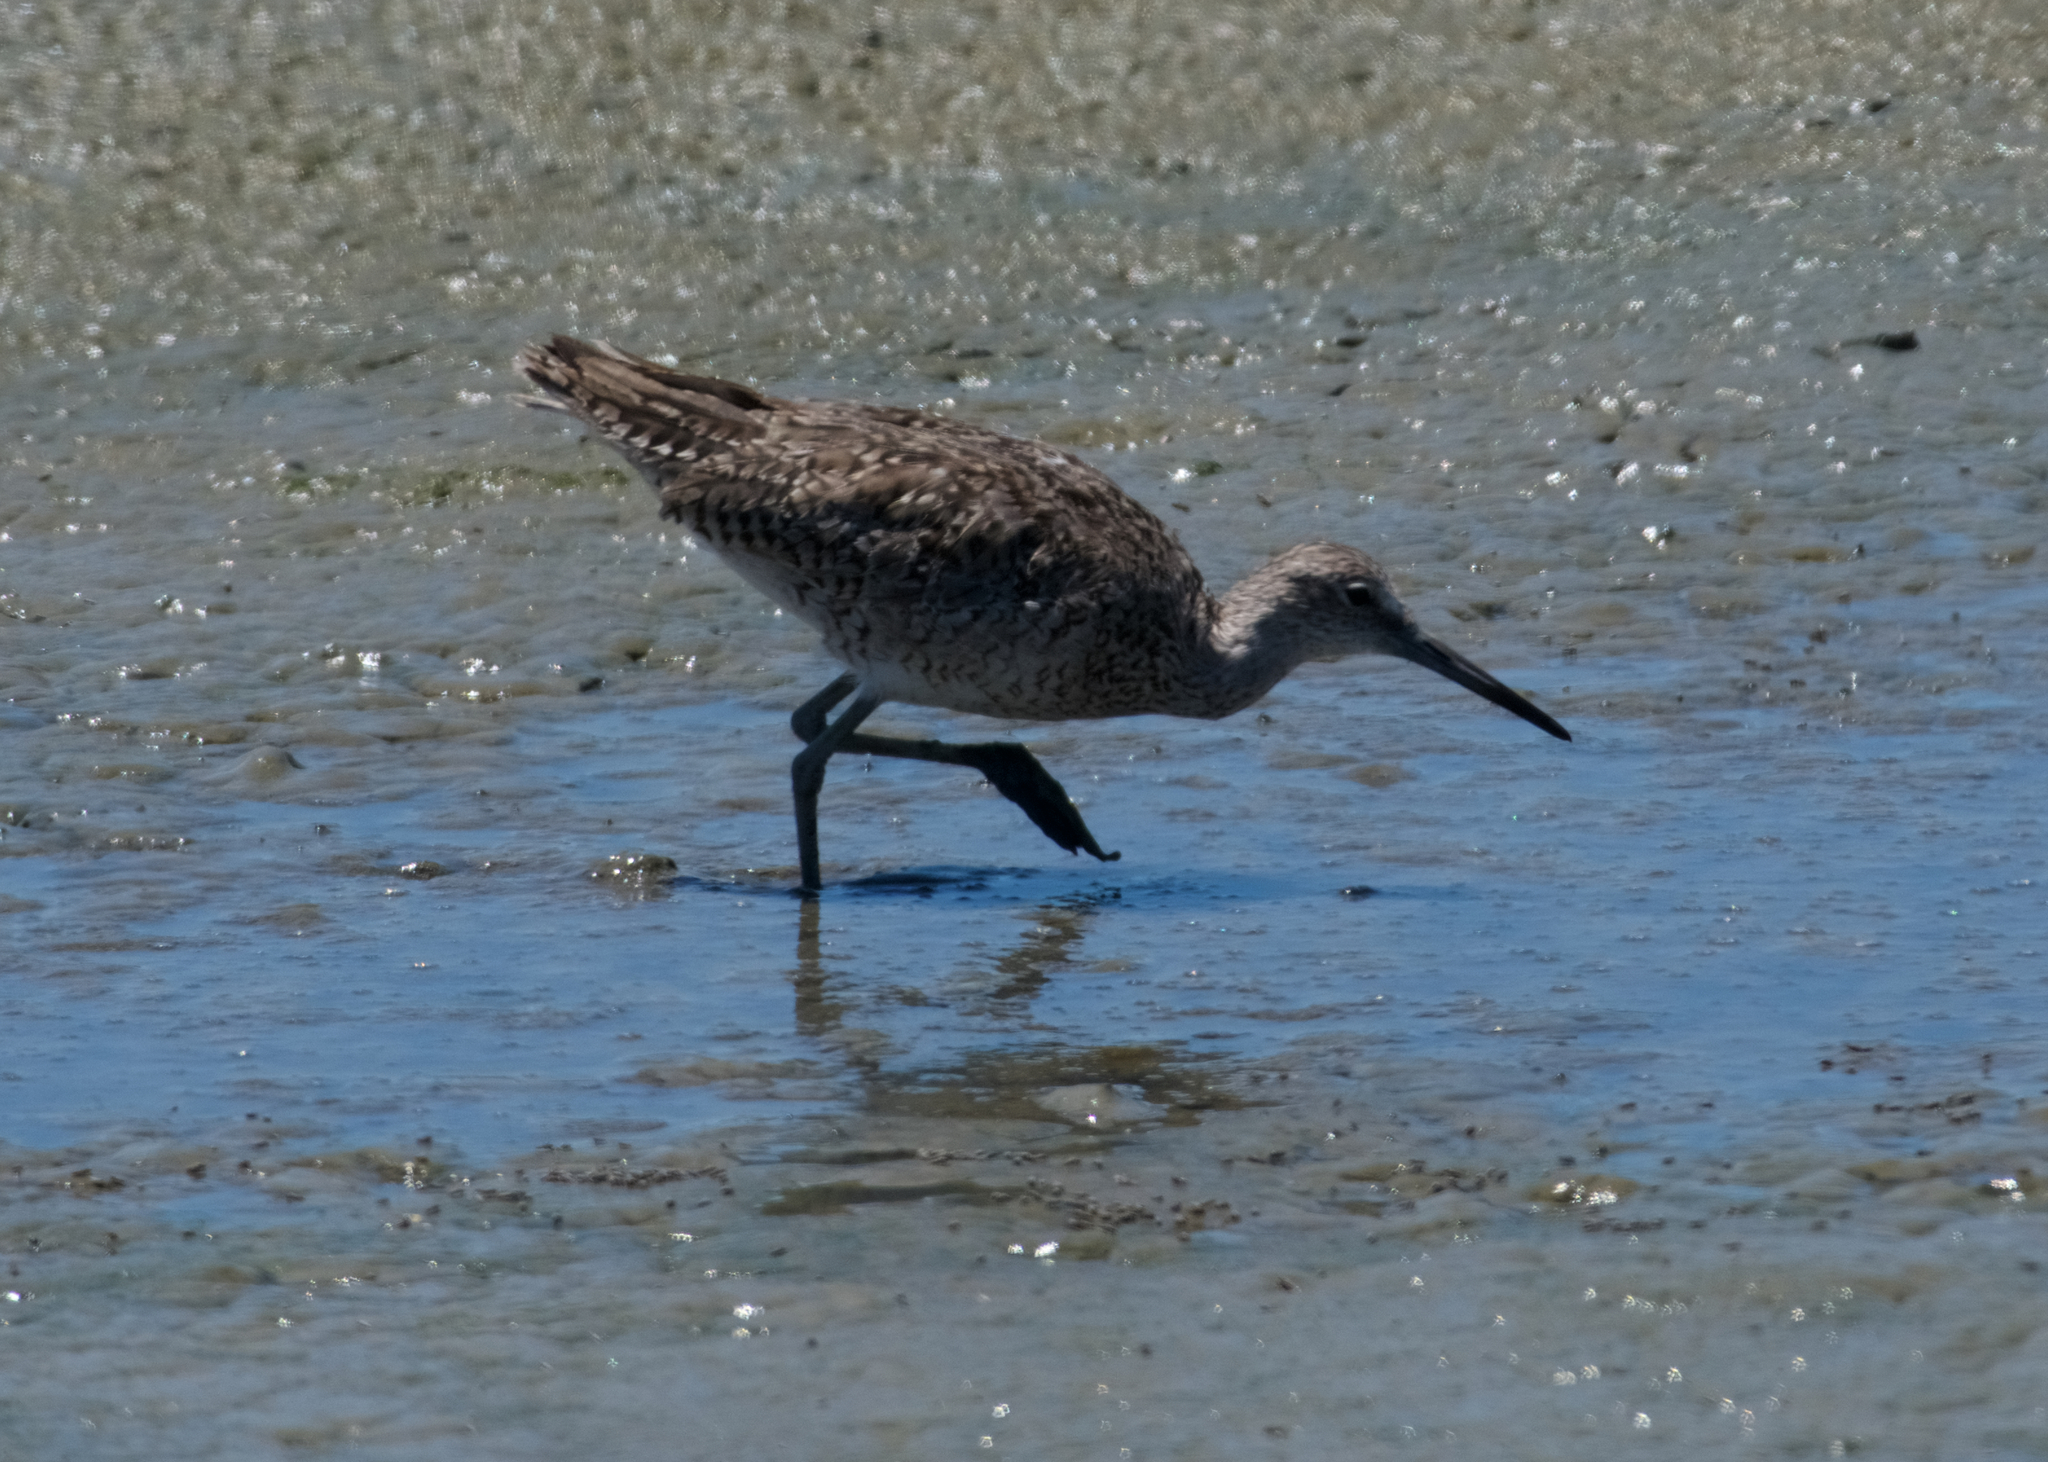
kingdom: Animalia
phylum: Chordata
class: Aves
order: Charadriiformes
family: Scolopacidae
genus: Tringa
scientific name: Tringa semipalmata
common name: Willet
